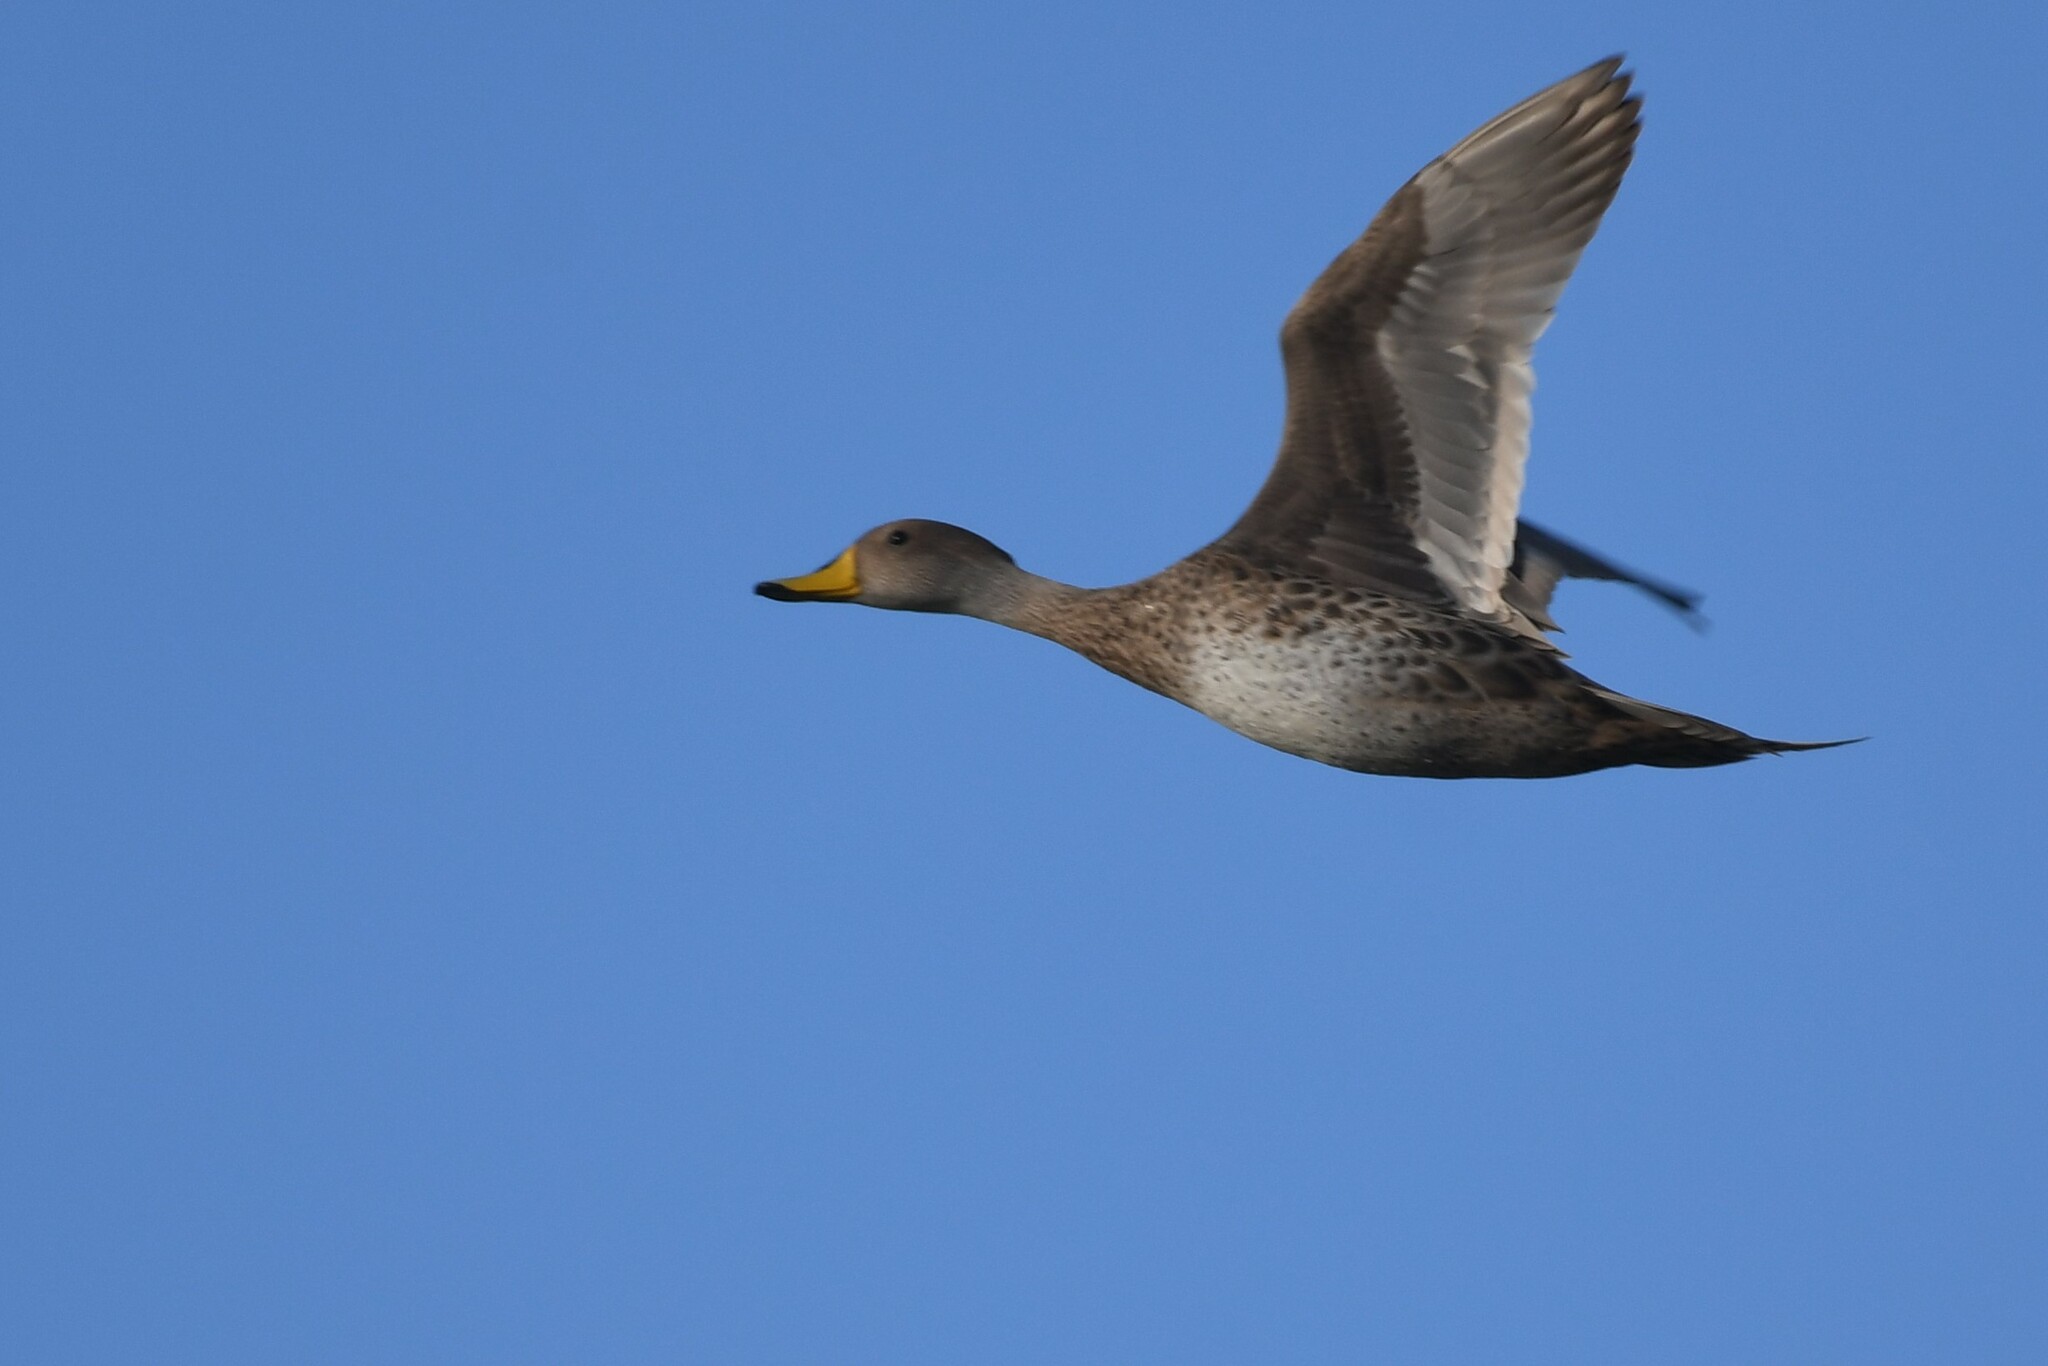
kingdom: Animalia
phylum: Chordata
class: Aves
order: Anseriformes
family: Anatidae
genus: Anas
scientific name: Anas georgica
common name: Yellow-billed pintail
